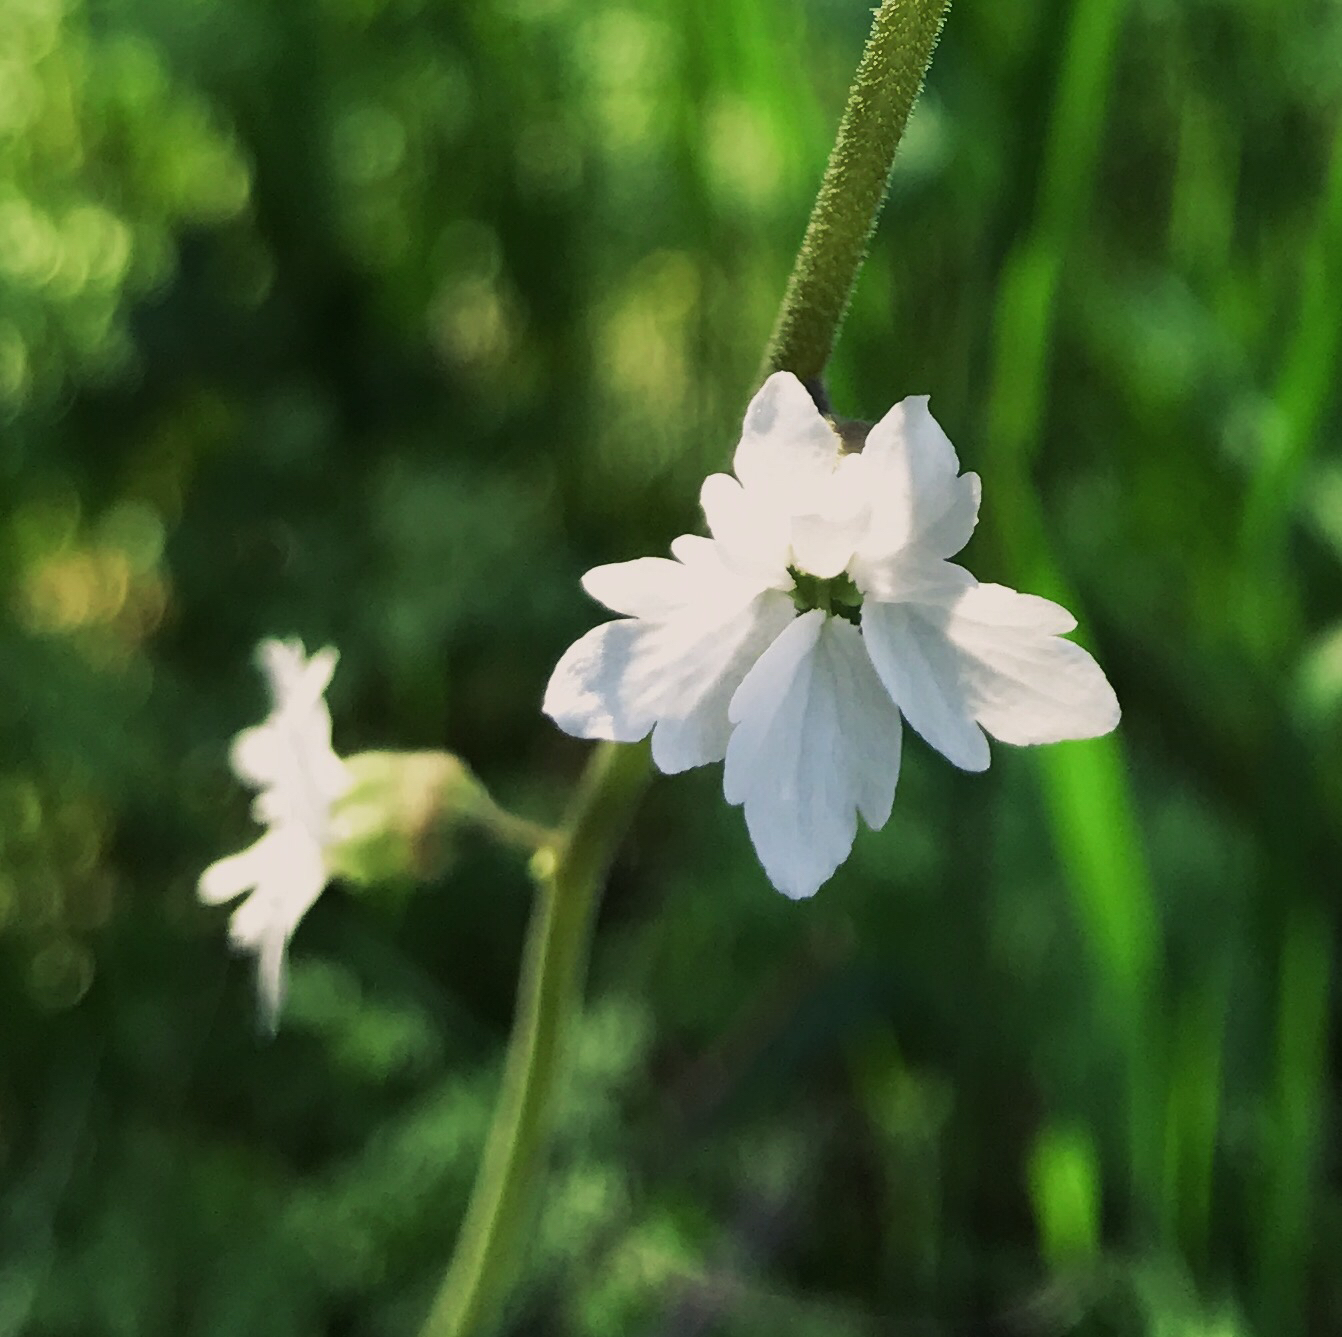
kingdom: Plantae
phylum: Tracheophyta
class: Magnoliopsida
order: Saxifragales
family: Saxifragaceae
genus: Lithophragma
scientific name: Lithophragma bolanderi
